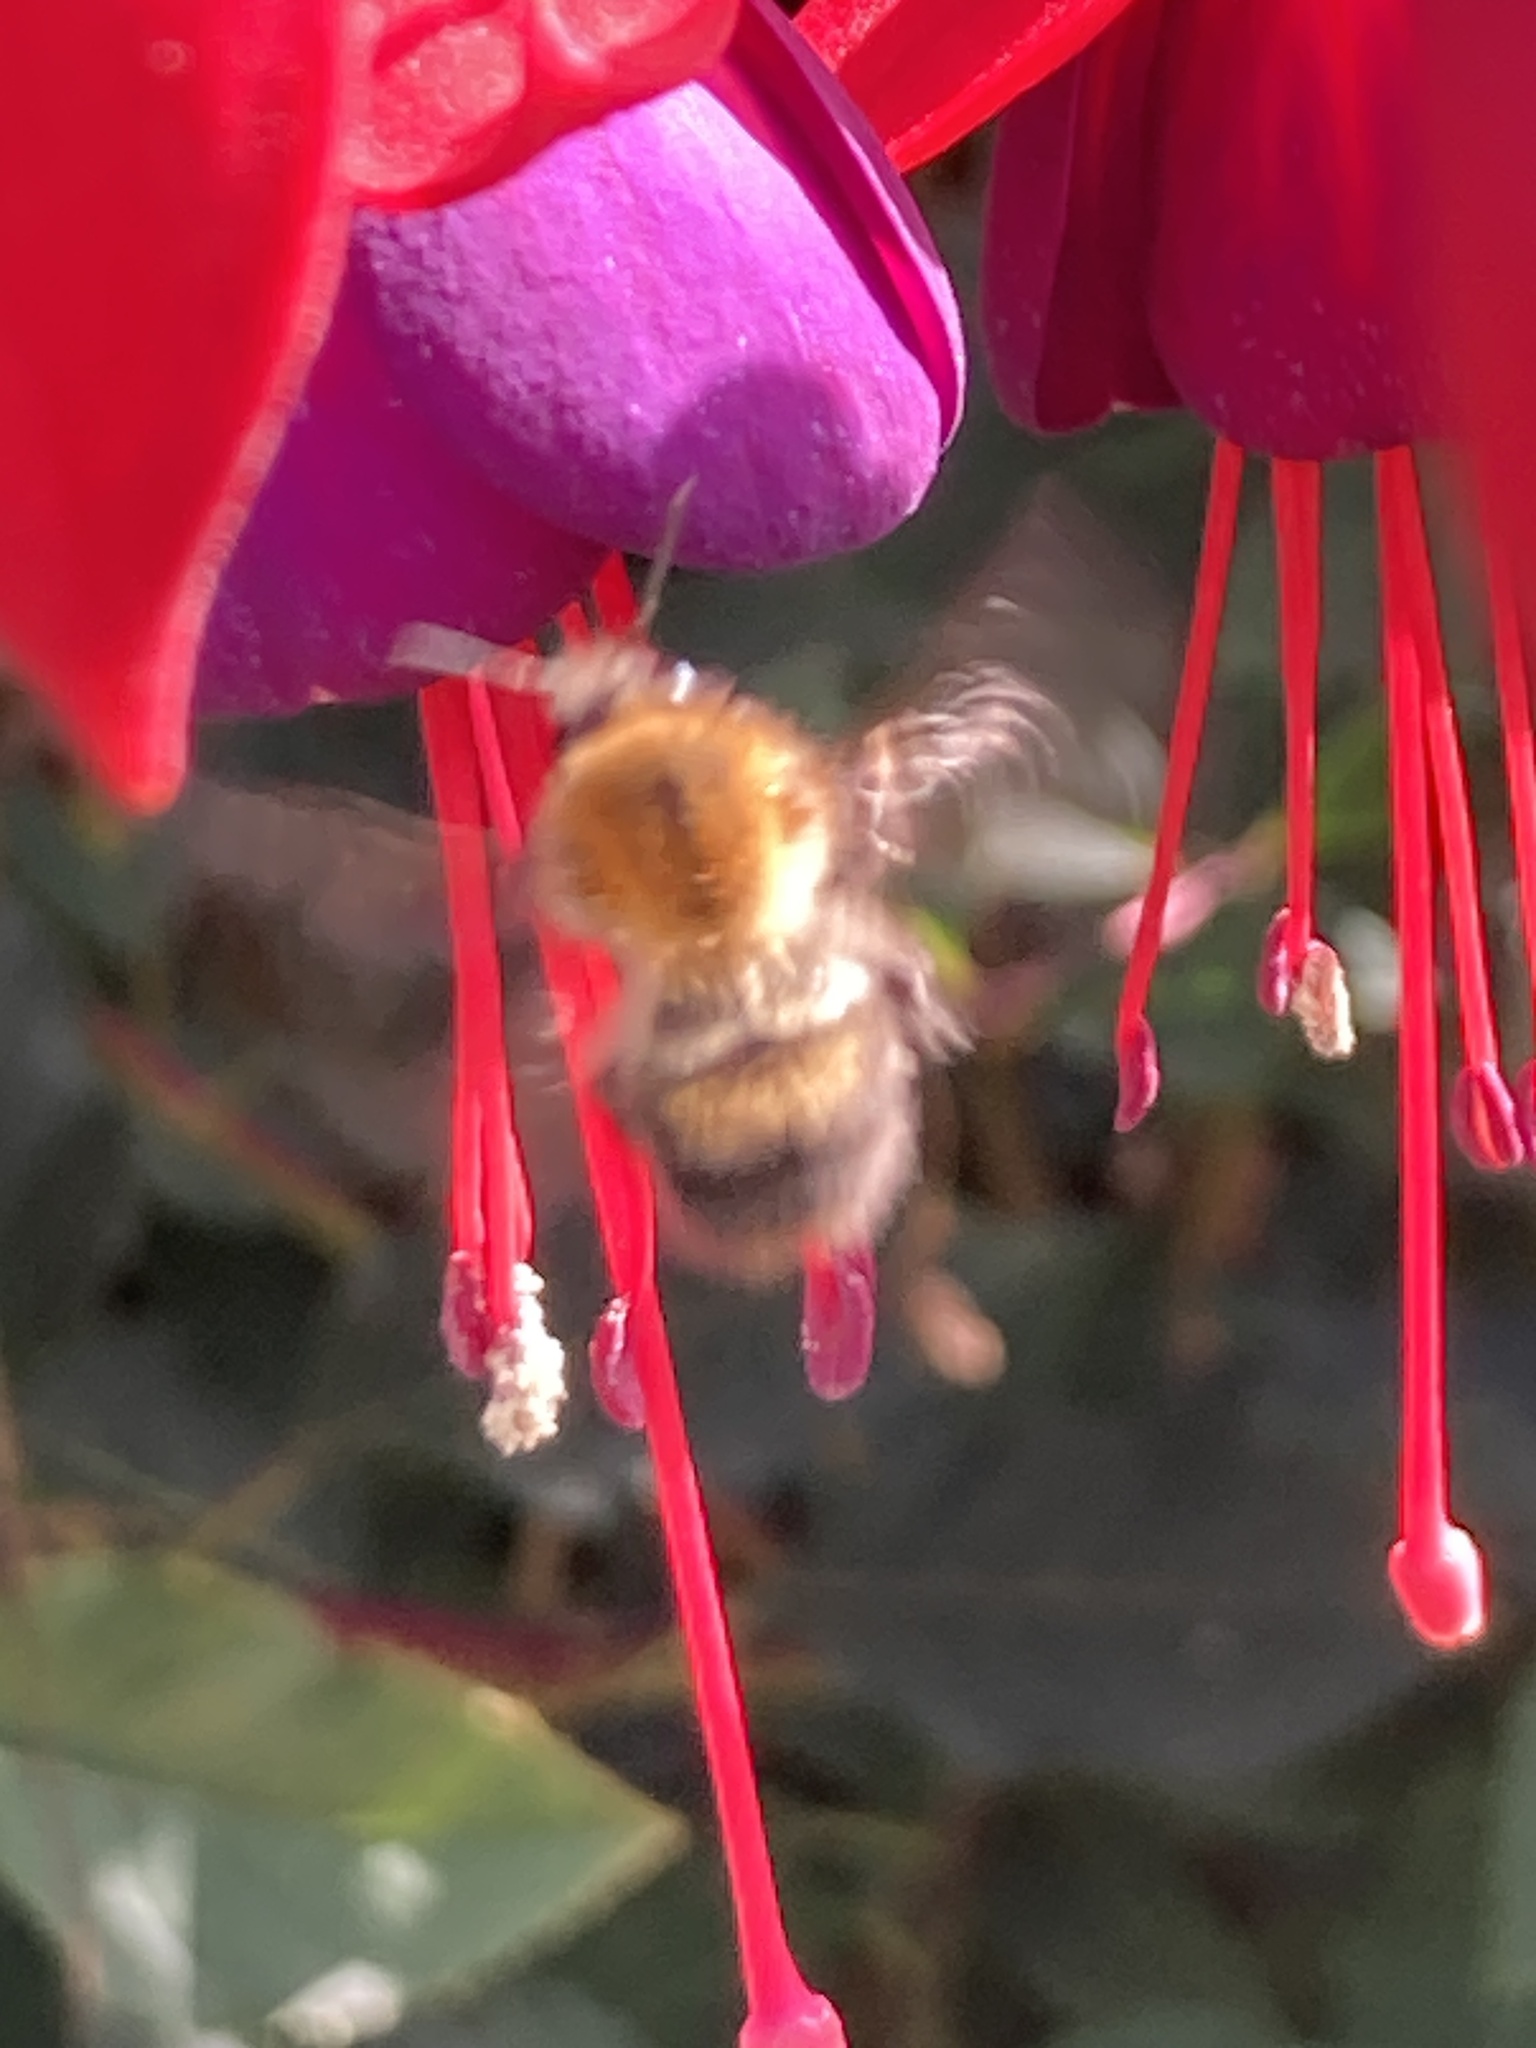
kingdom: Animalia
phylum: Arthropoda
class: Insecta
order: Hymenoptera
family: Apidae
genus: Bombus
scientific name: Bombus pascuorum
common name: Common carder bee
